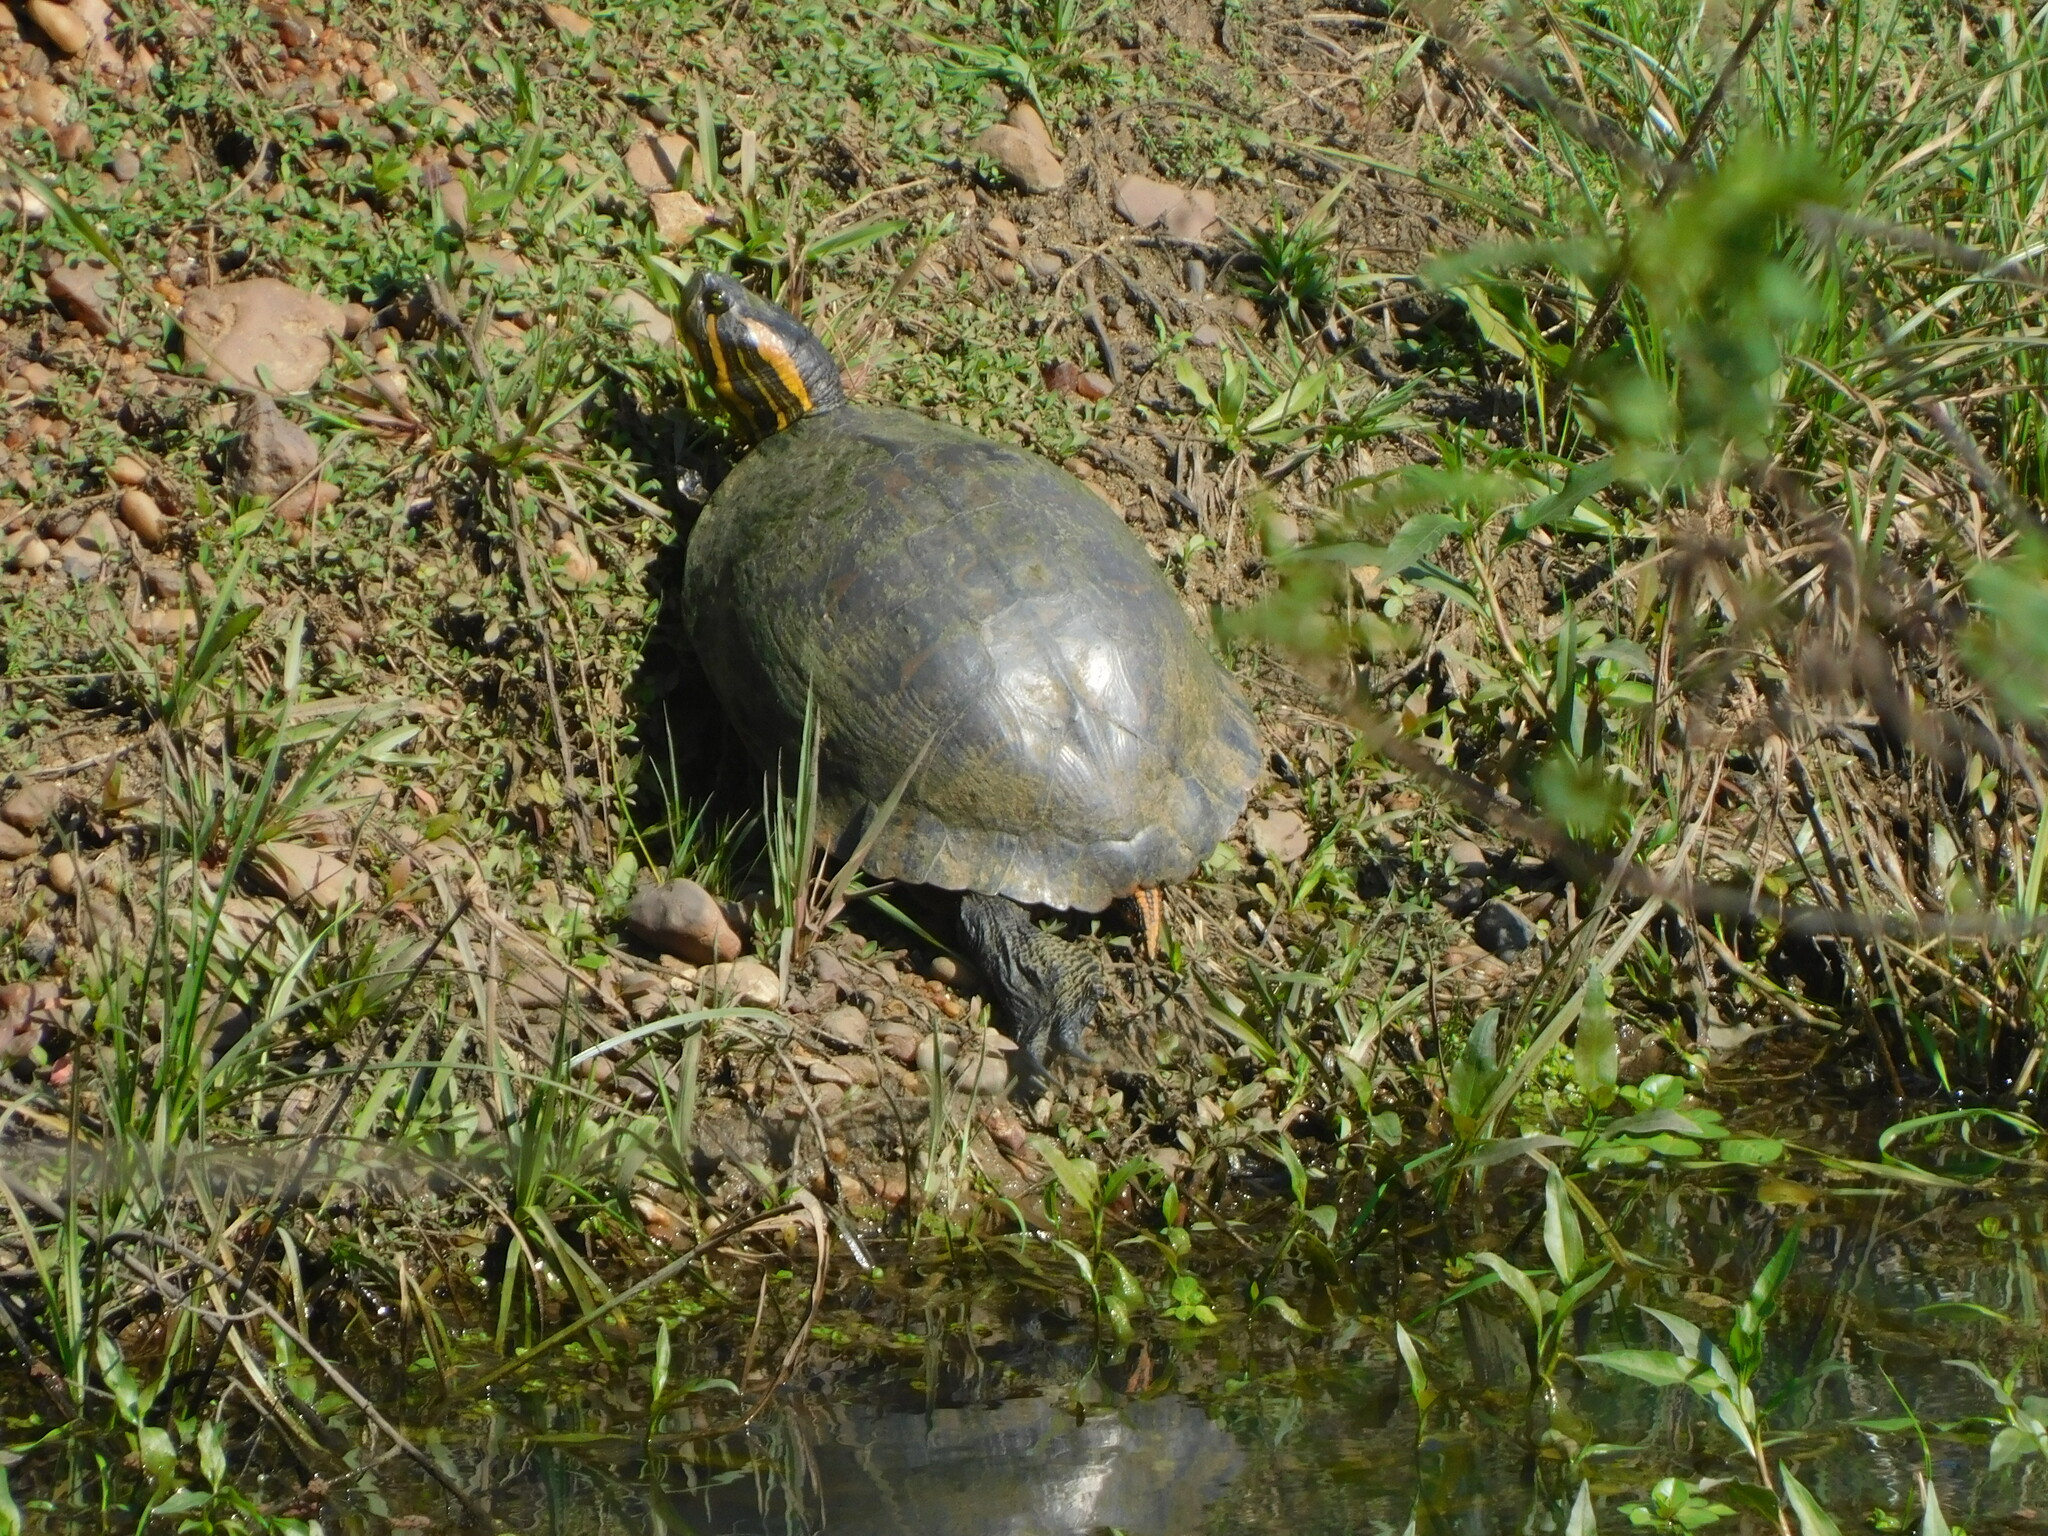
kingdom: Animalia
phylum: Chordata
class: Testudines
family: Emydidae
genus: Trachemys
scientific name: Trachemys dorbigni
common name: Black-bellied slider
